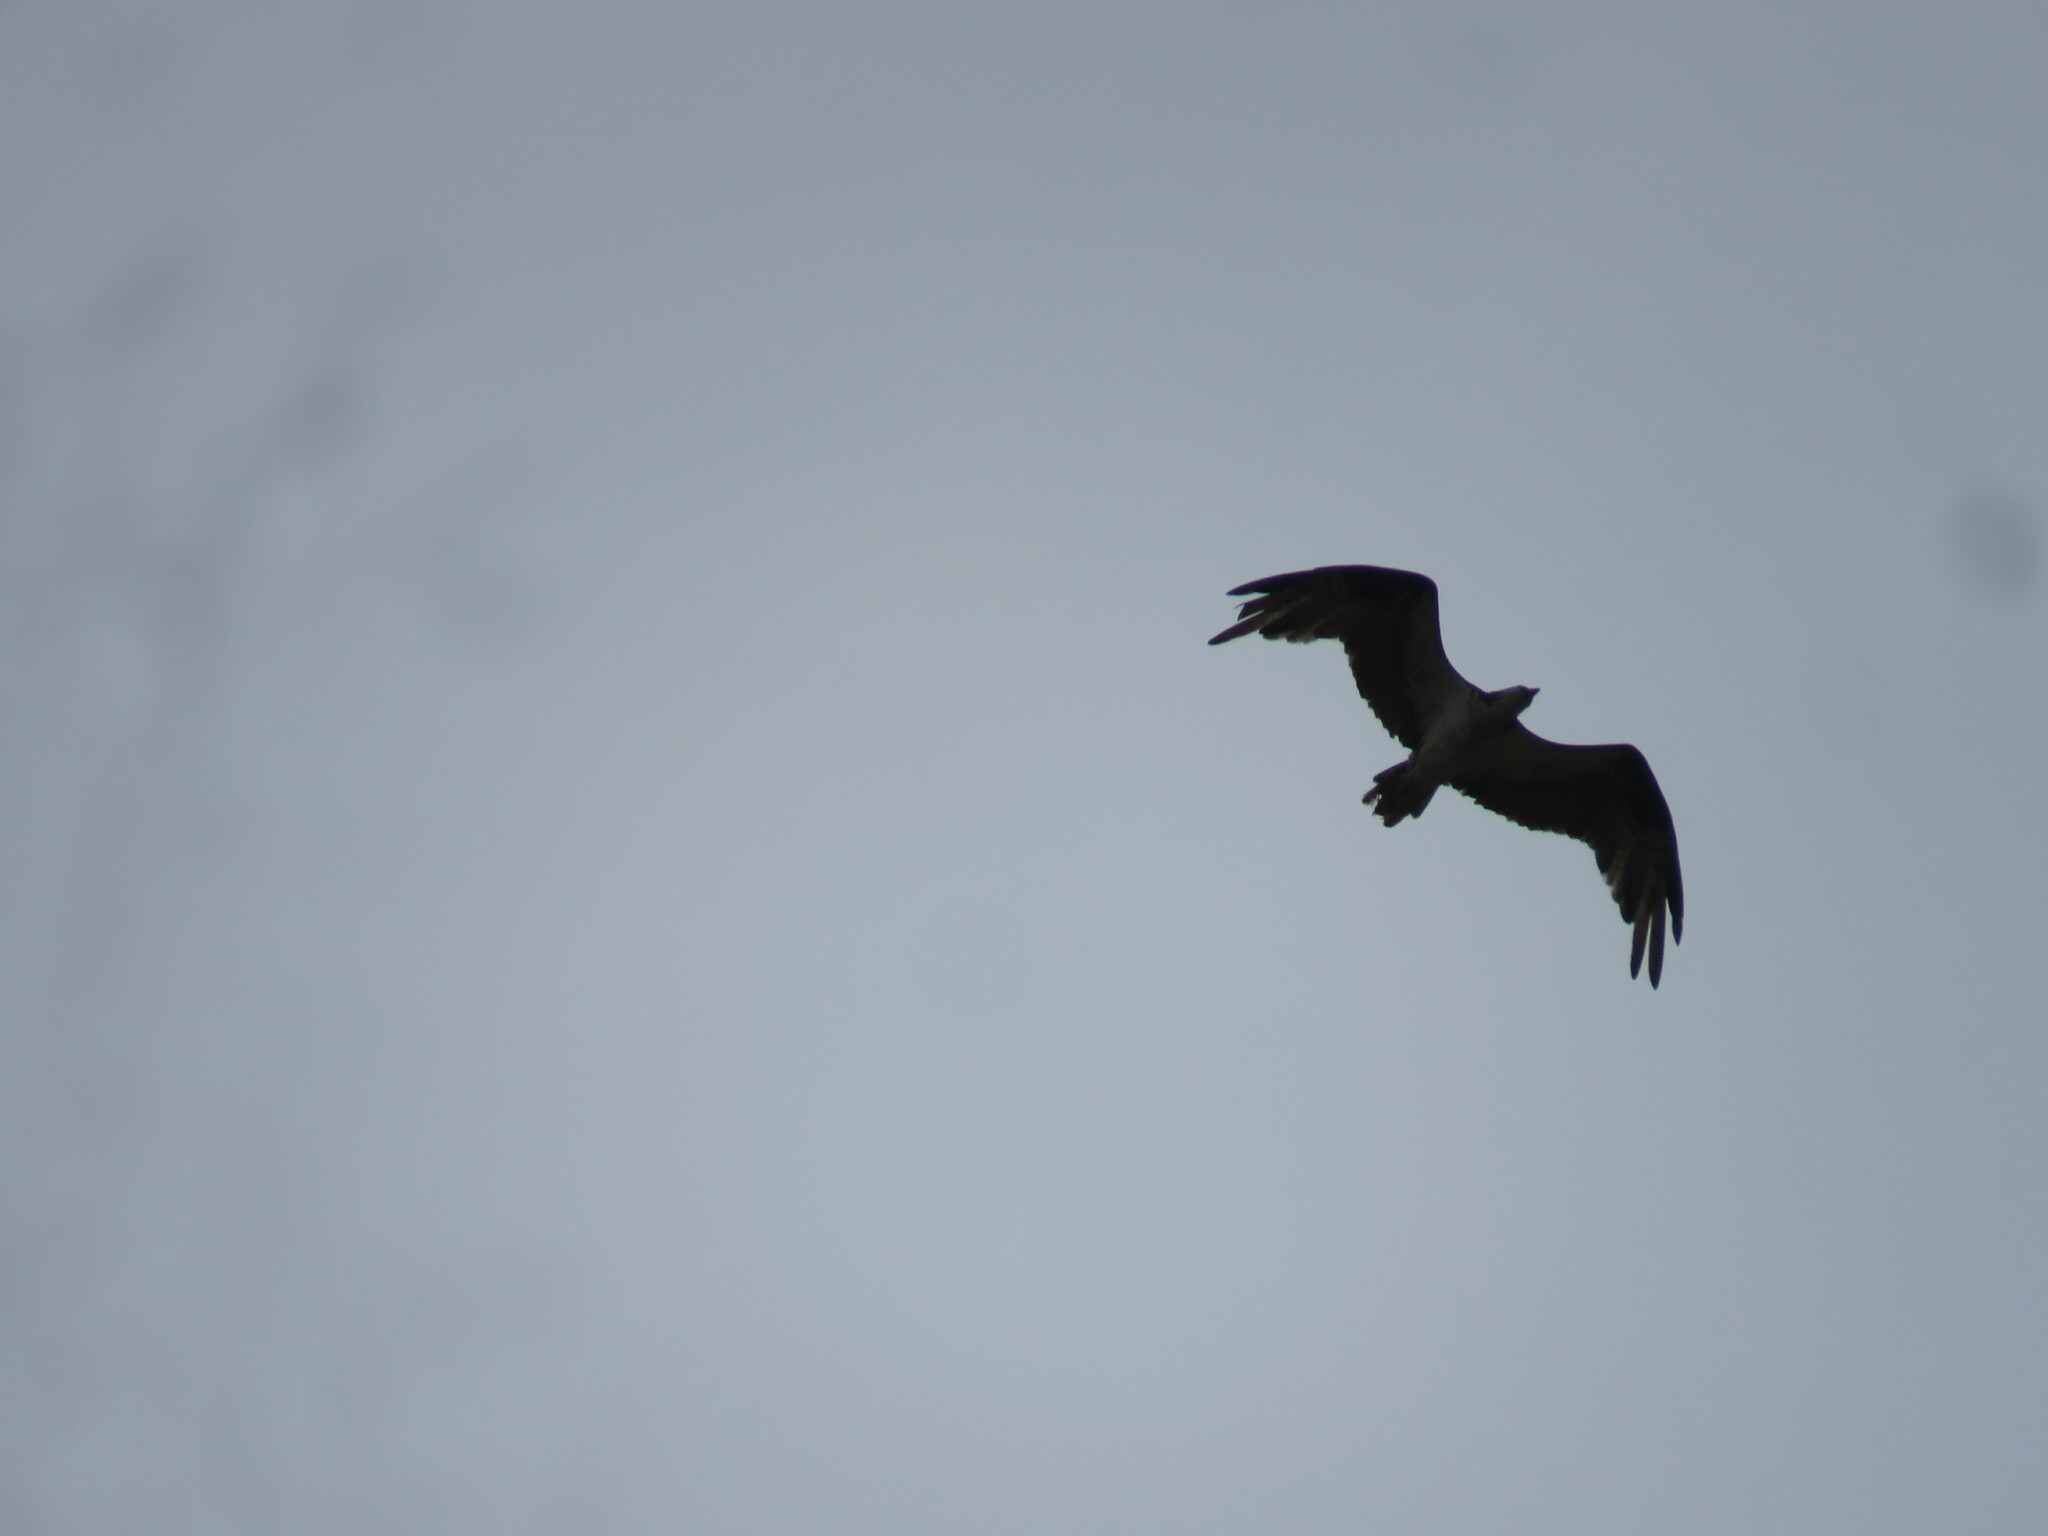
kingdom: Animalia
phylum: Chordata
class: Aves
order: Accipitriformes
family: Pandionidae
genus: Pandion
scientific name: Pandion haliaetus
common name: Osprey
